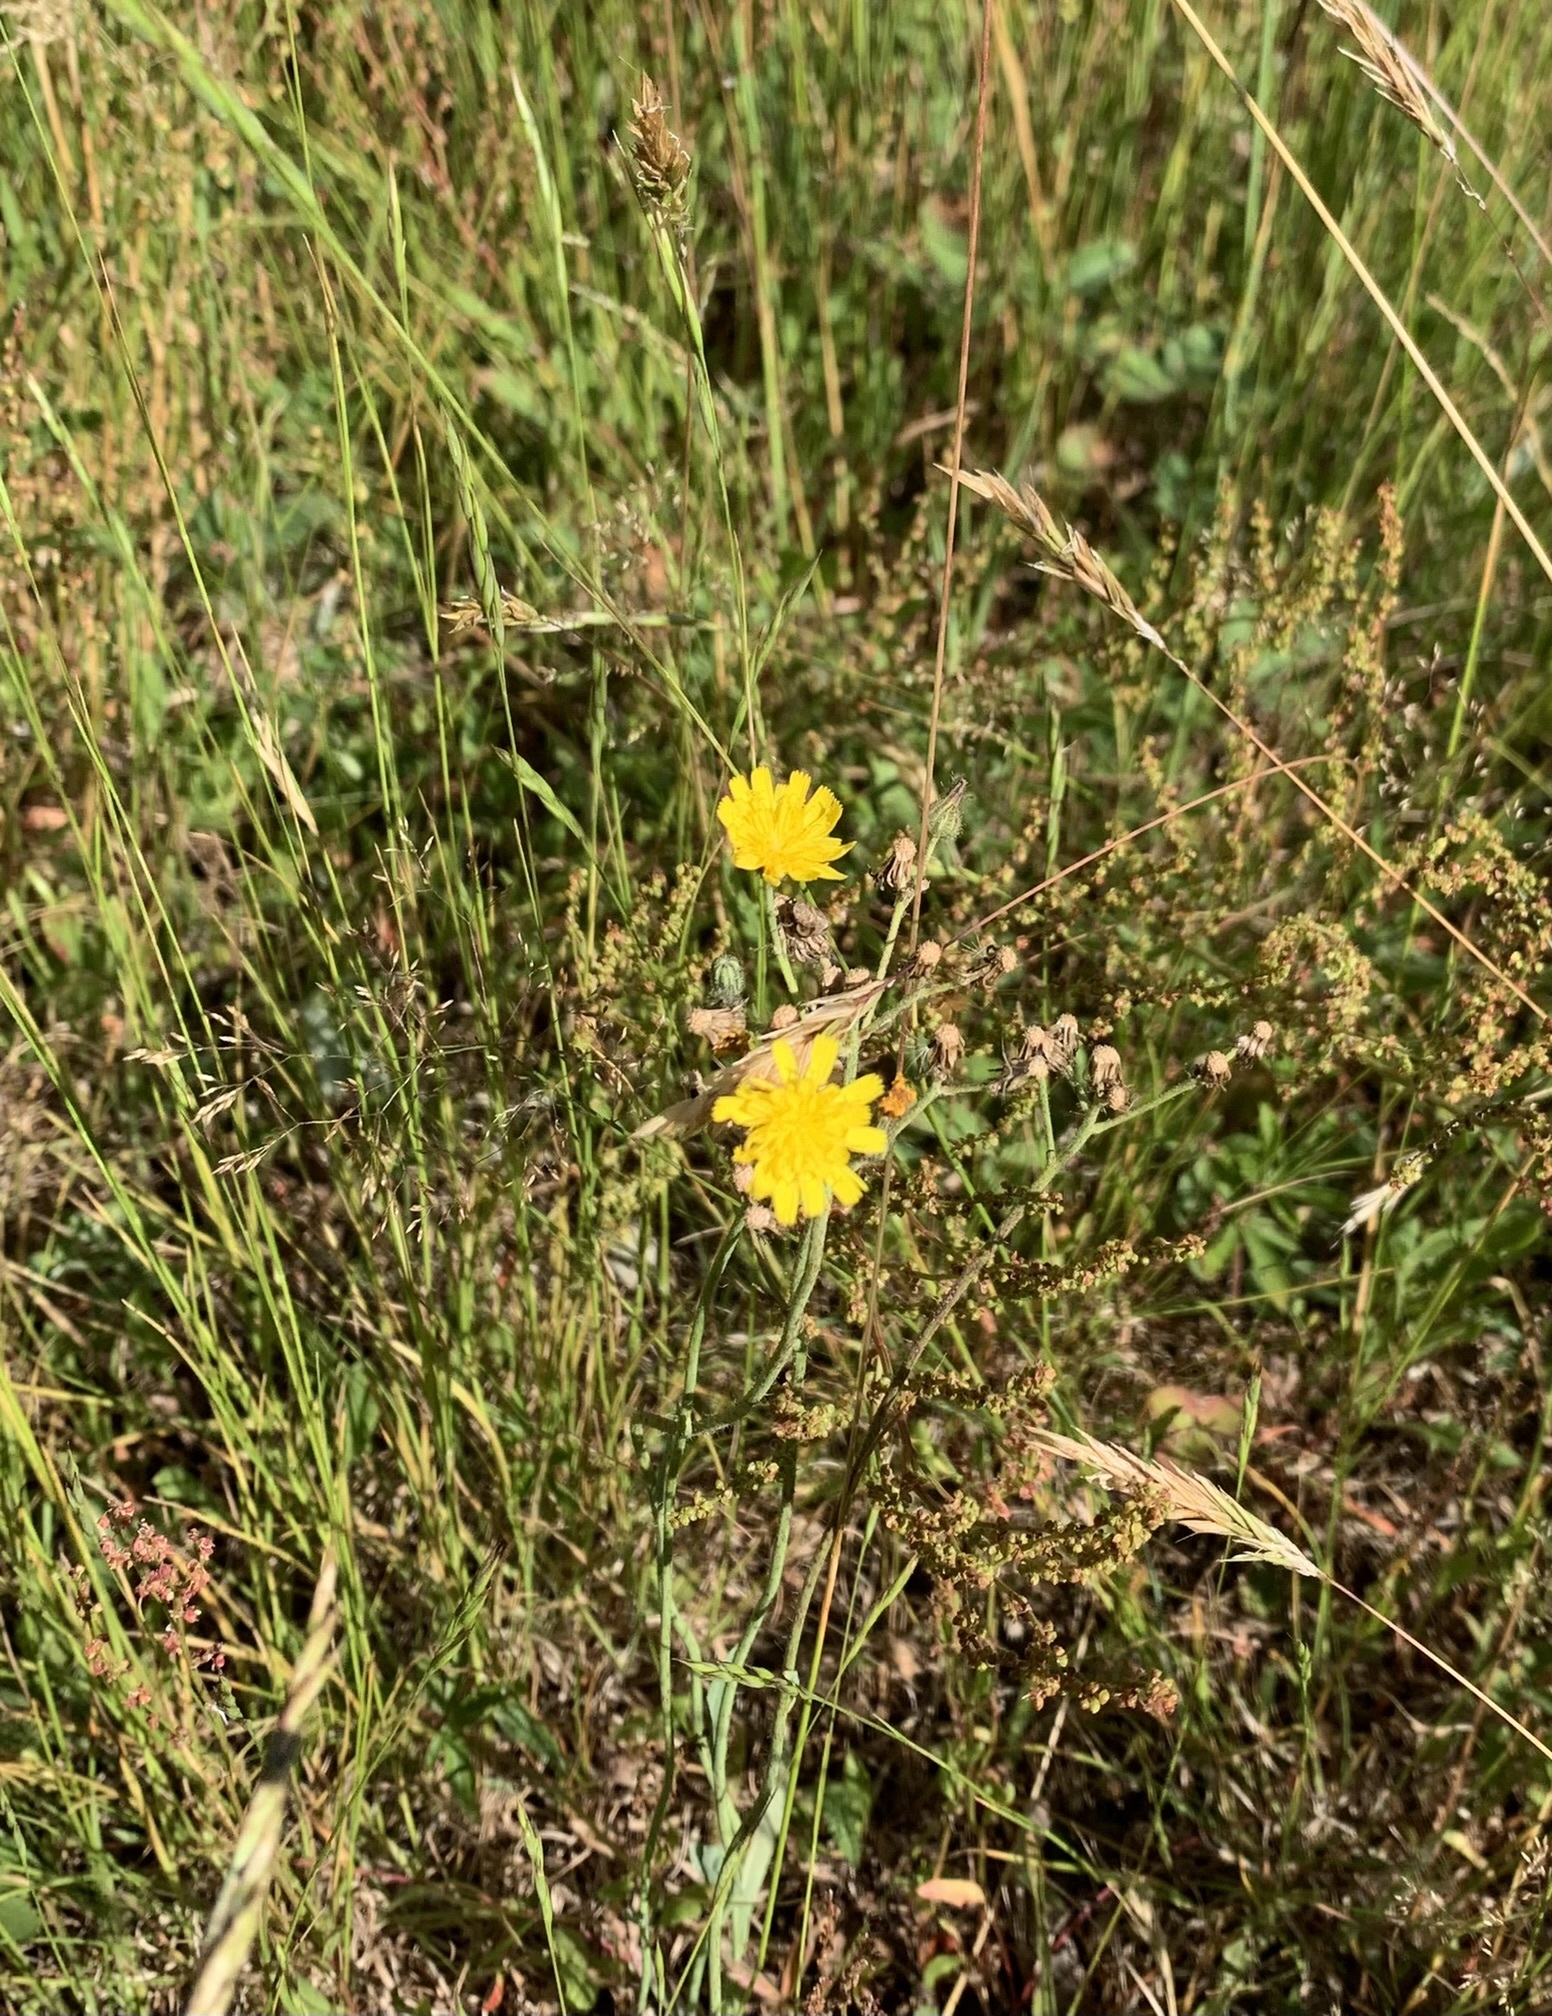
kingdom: Plantae
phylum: Tracheophyta
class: Magnoliopsida
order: Asterales
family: Asteraceae
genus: Scorzoneroides
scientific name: Scorzoneroides autumnalis
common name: Autumn hawkbit
